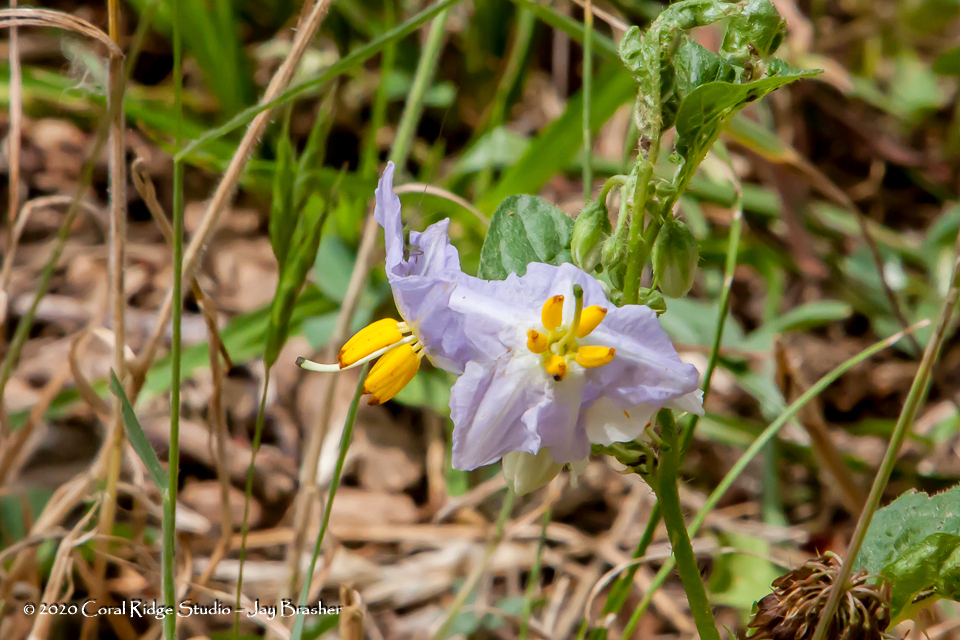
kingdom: Plantae
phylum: Tracheophyta
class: Magnoliopsida
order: Solanales
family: Solanaceae
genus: Solanum
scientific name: Solanum carolinense
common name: Horse-nettle
